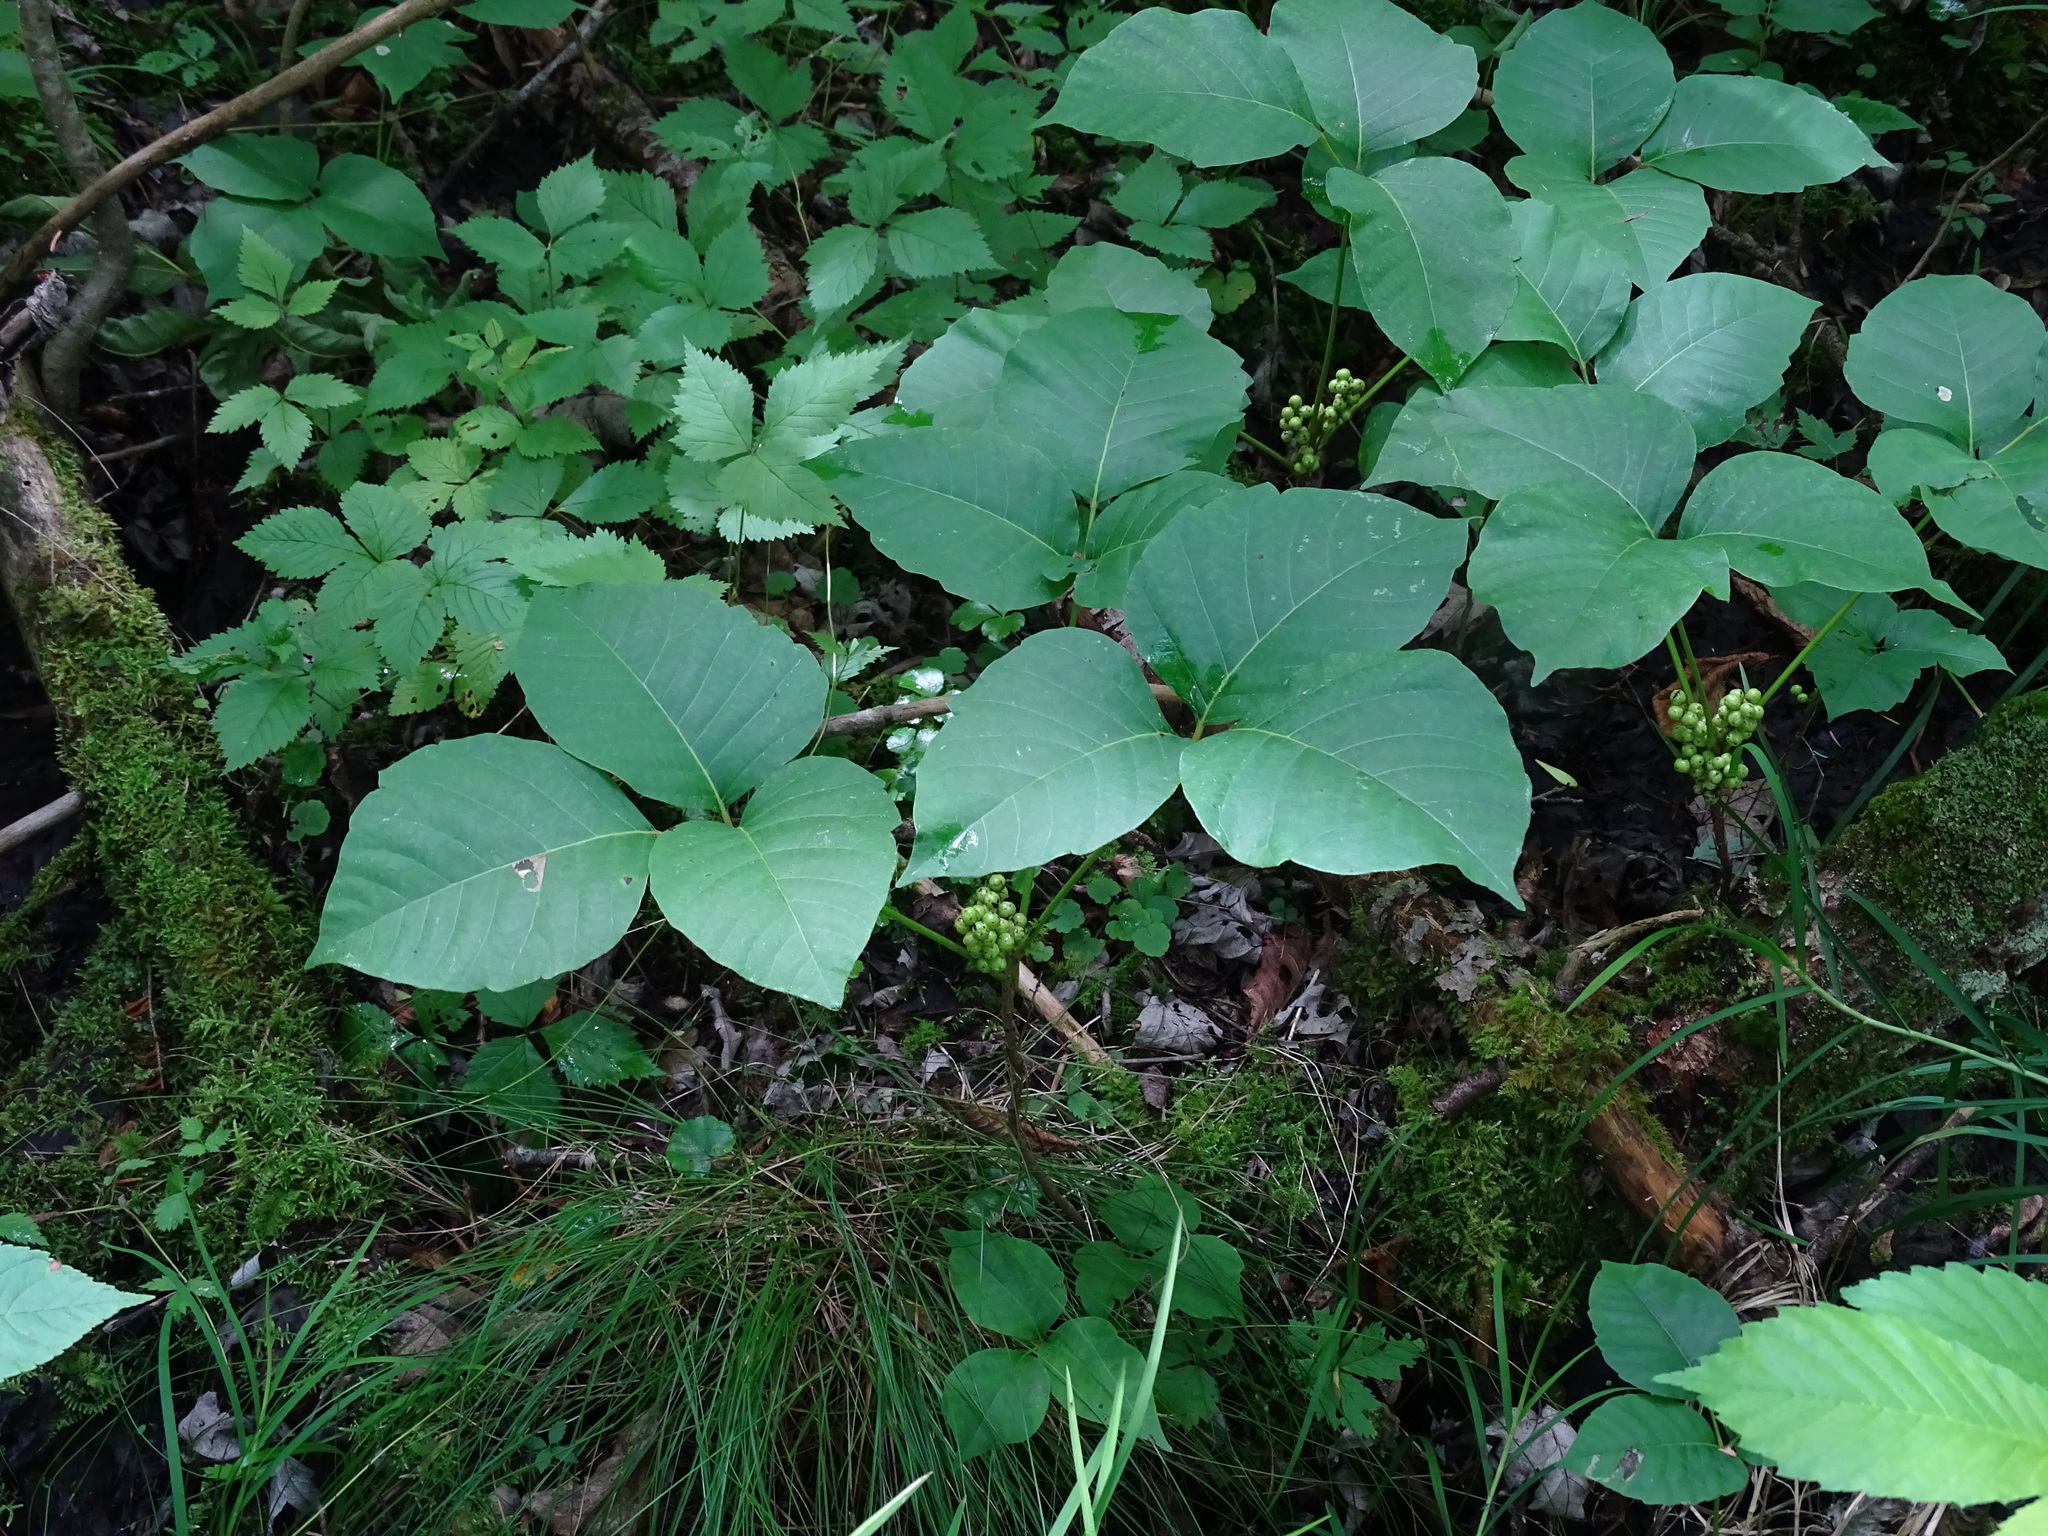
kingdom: Plantae
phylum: Tracheophyta
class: Magnoliopsida
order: Sapindales
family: Anacardiaceae
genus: Toxicodendron
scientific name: Toxicodendron rydbergii
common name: Rydberg's poison-ivy
